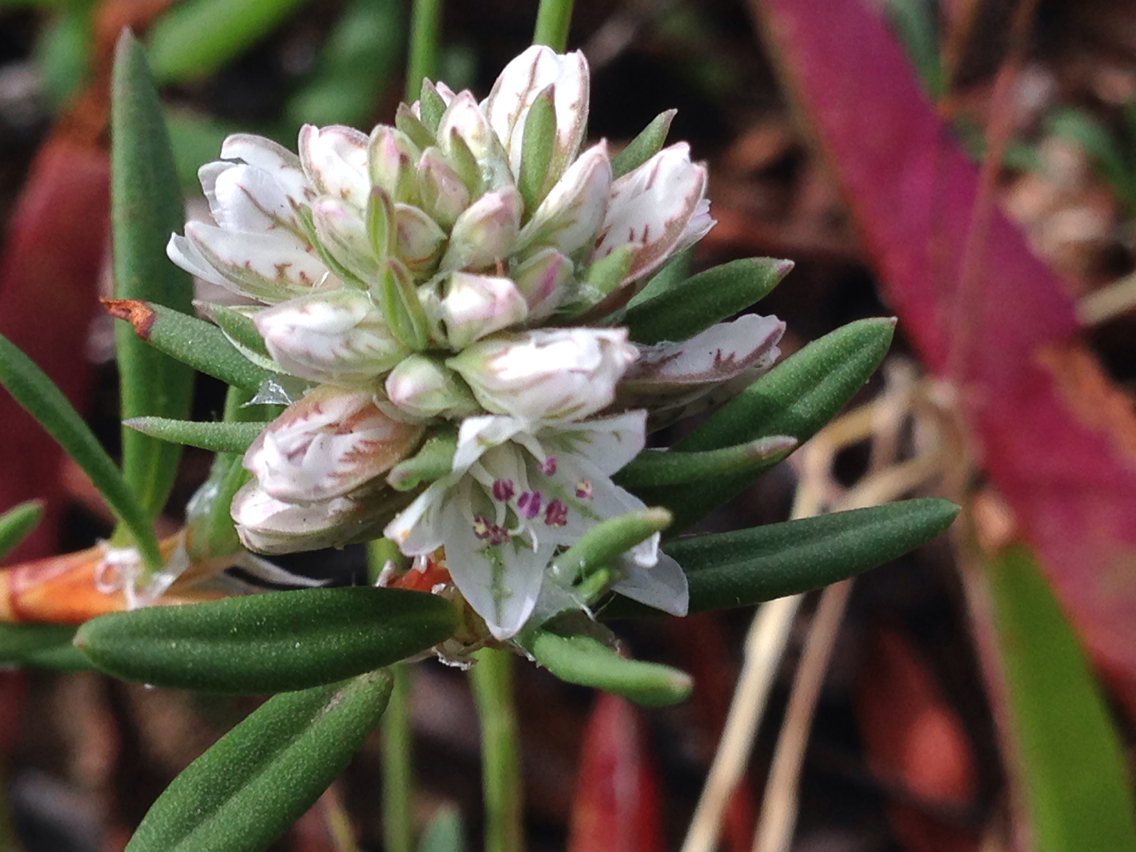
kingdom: Plantae
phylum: Tracheophyta
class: Magnoliopsida
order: Caryophyllales
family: Polygonaceae
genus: Polygonum
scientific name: Polygonum paronychia
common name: Dune knotweed
